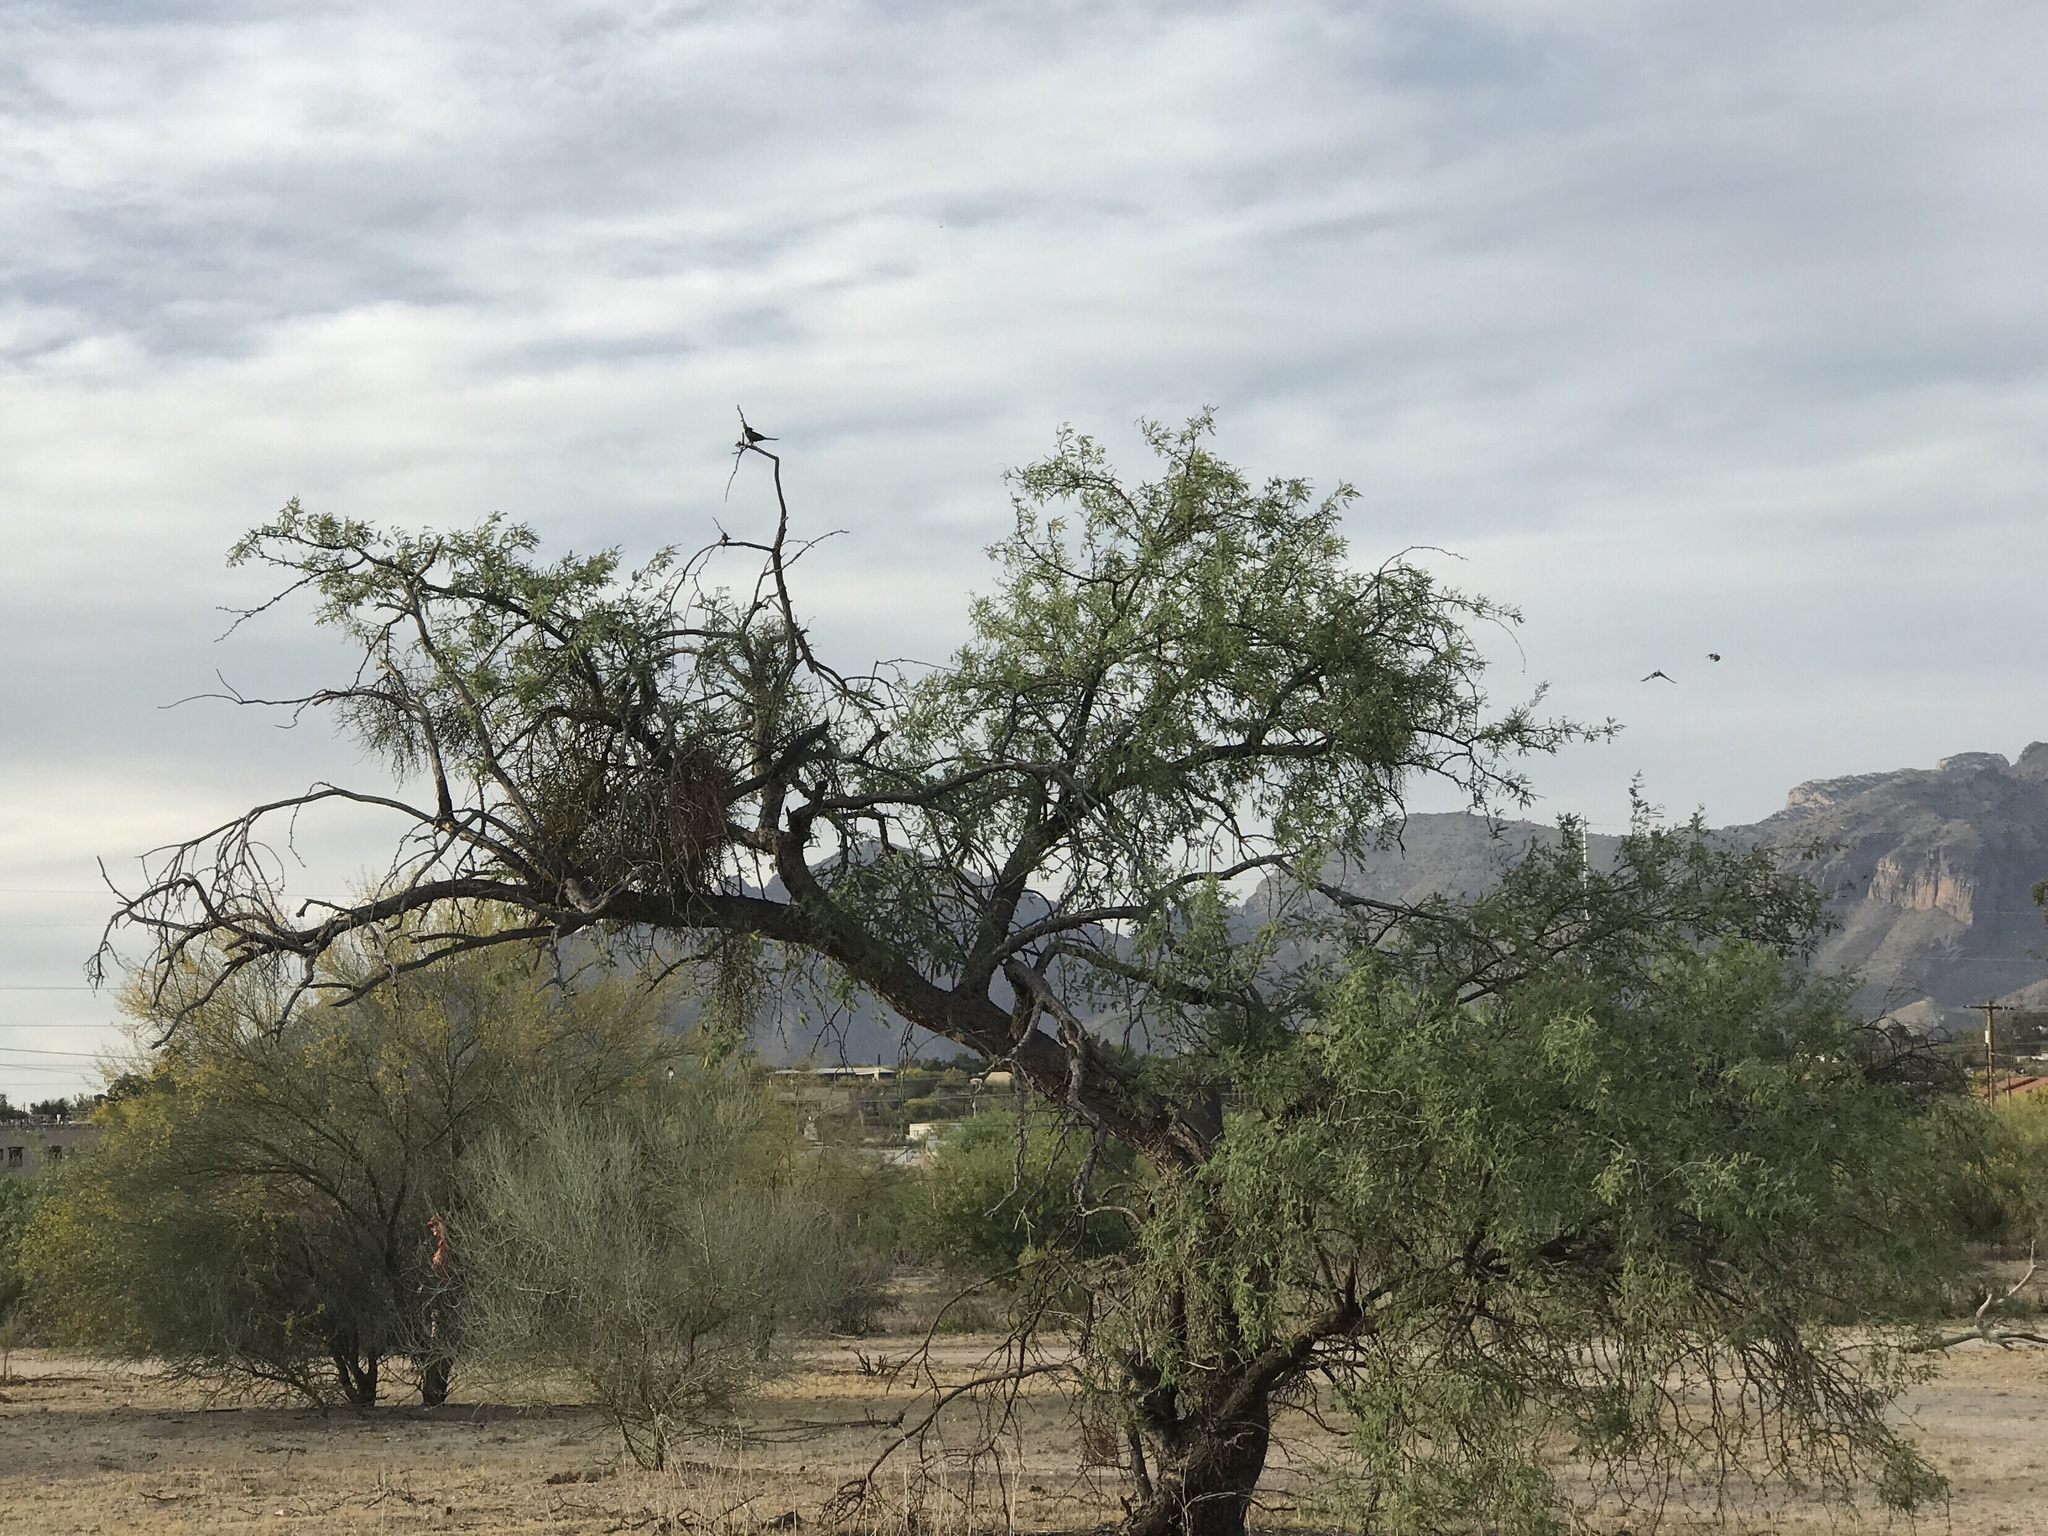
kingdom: Plantae
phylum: Tracheophyta
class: Magnoliopsida
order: Fabales
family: Fabaceae
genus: Prosopis
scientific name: Prosopis velutina
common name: Velvet mesquite
